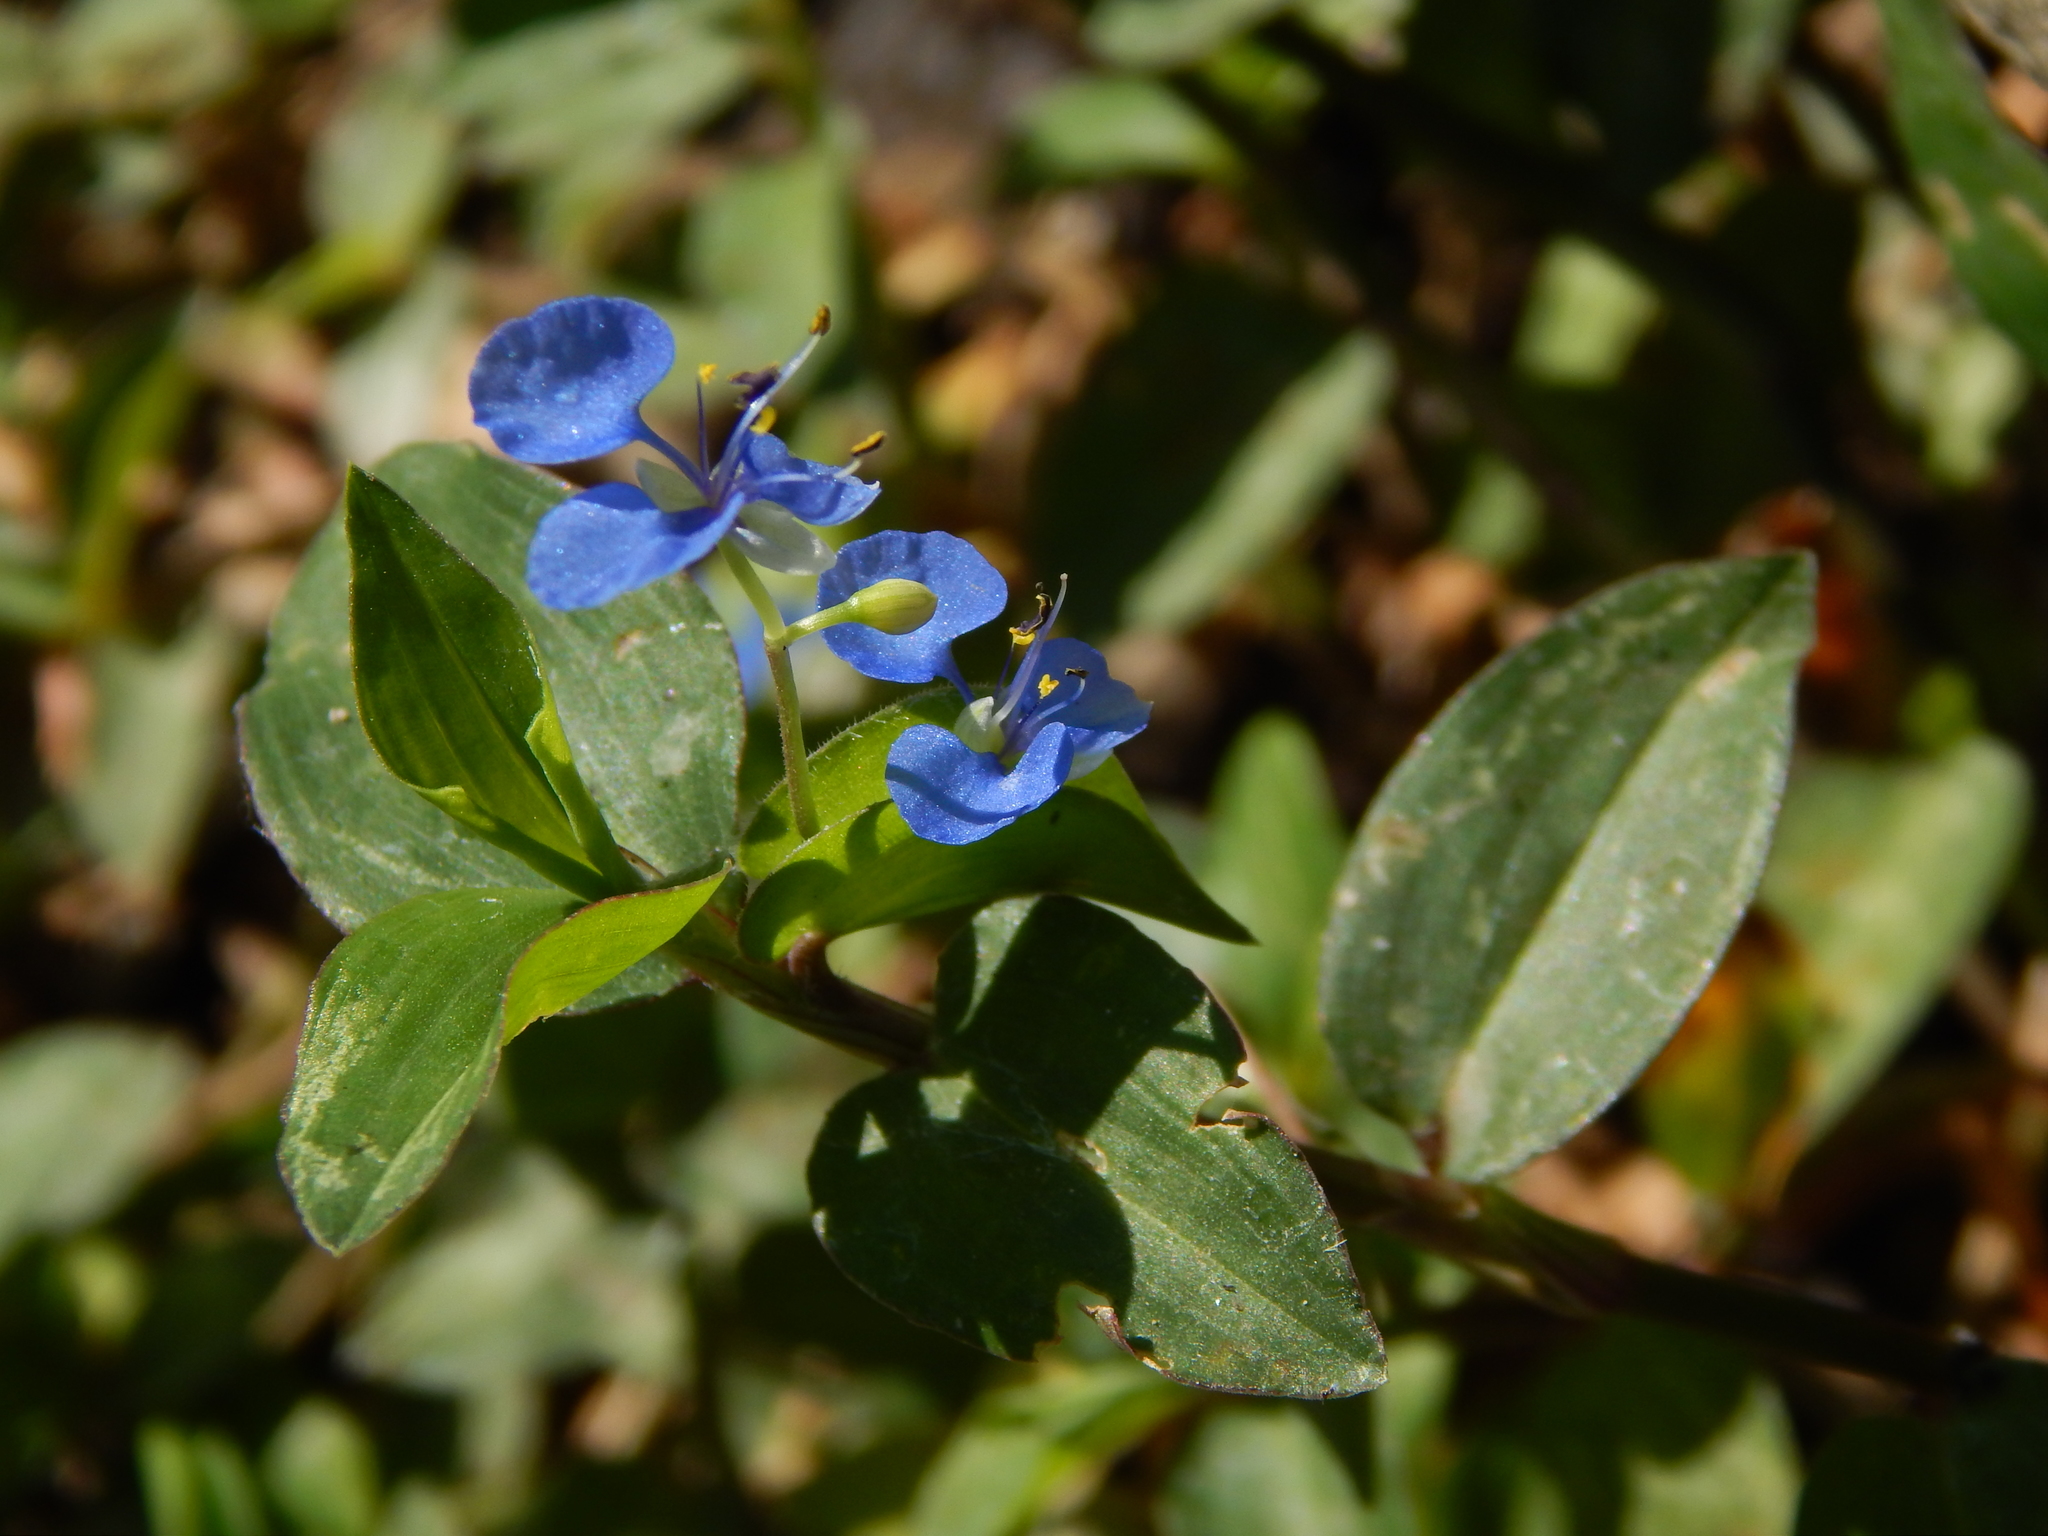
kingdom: Plantae
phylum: Tracheophyta
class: Liliopsida
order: Commelinales
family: Commelinaceae
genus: Commelina
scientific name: Commelina diffusa
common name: Climbing dayflower
